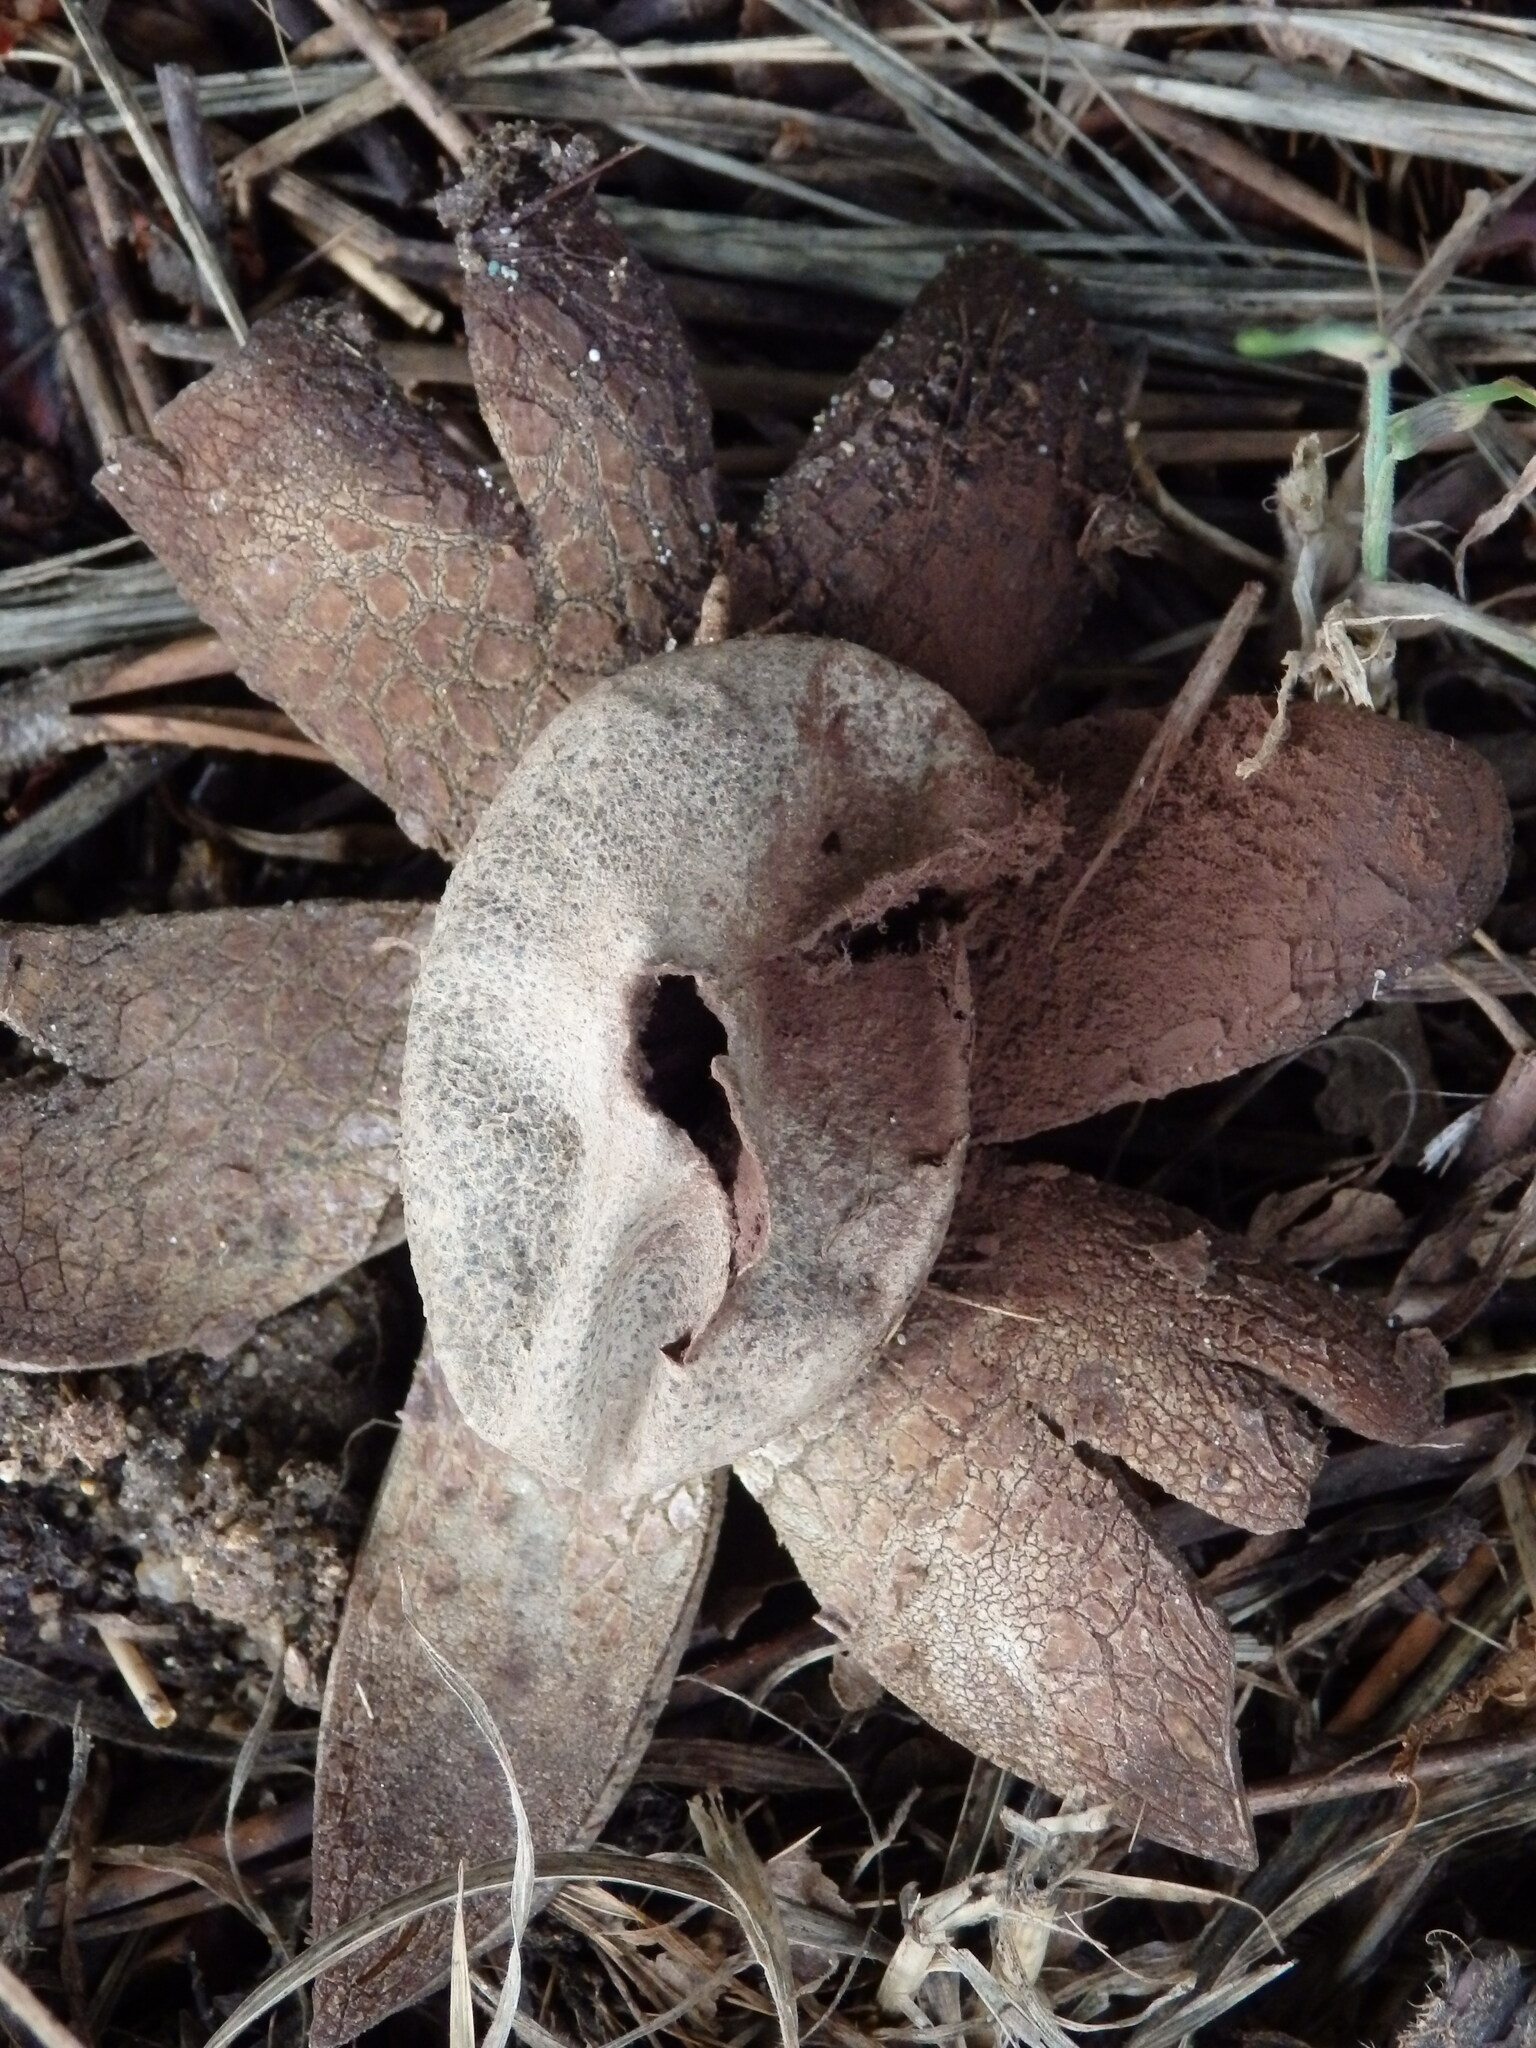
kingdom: Fungi
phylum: Basidiomycota
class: Agaricomycetes
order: Boletales
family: Diplocystidiaceae
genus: Astraeus
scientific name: Astraeus hygrometricus
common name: Barometer earthstar
